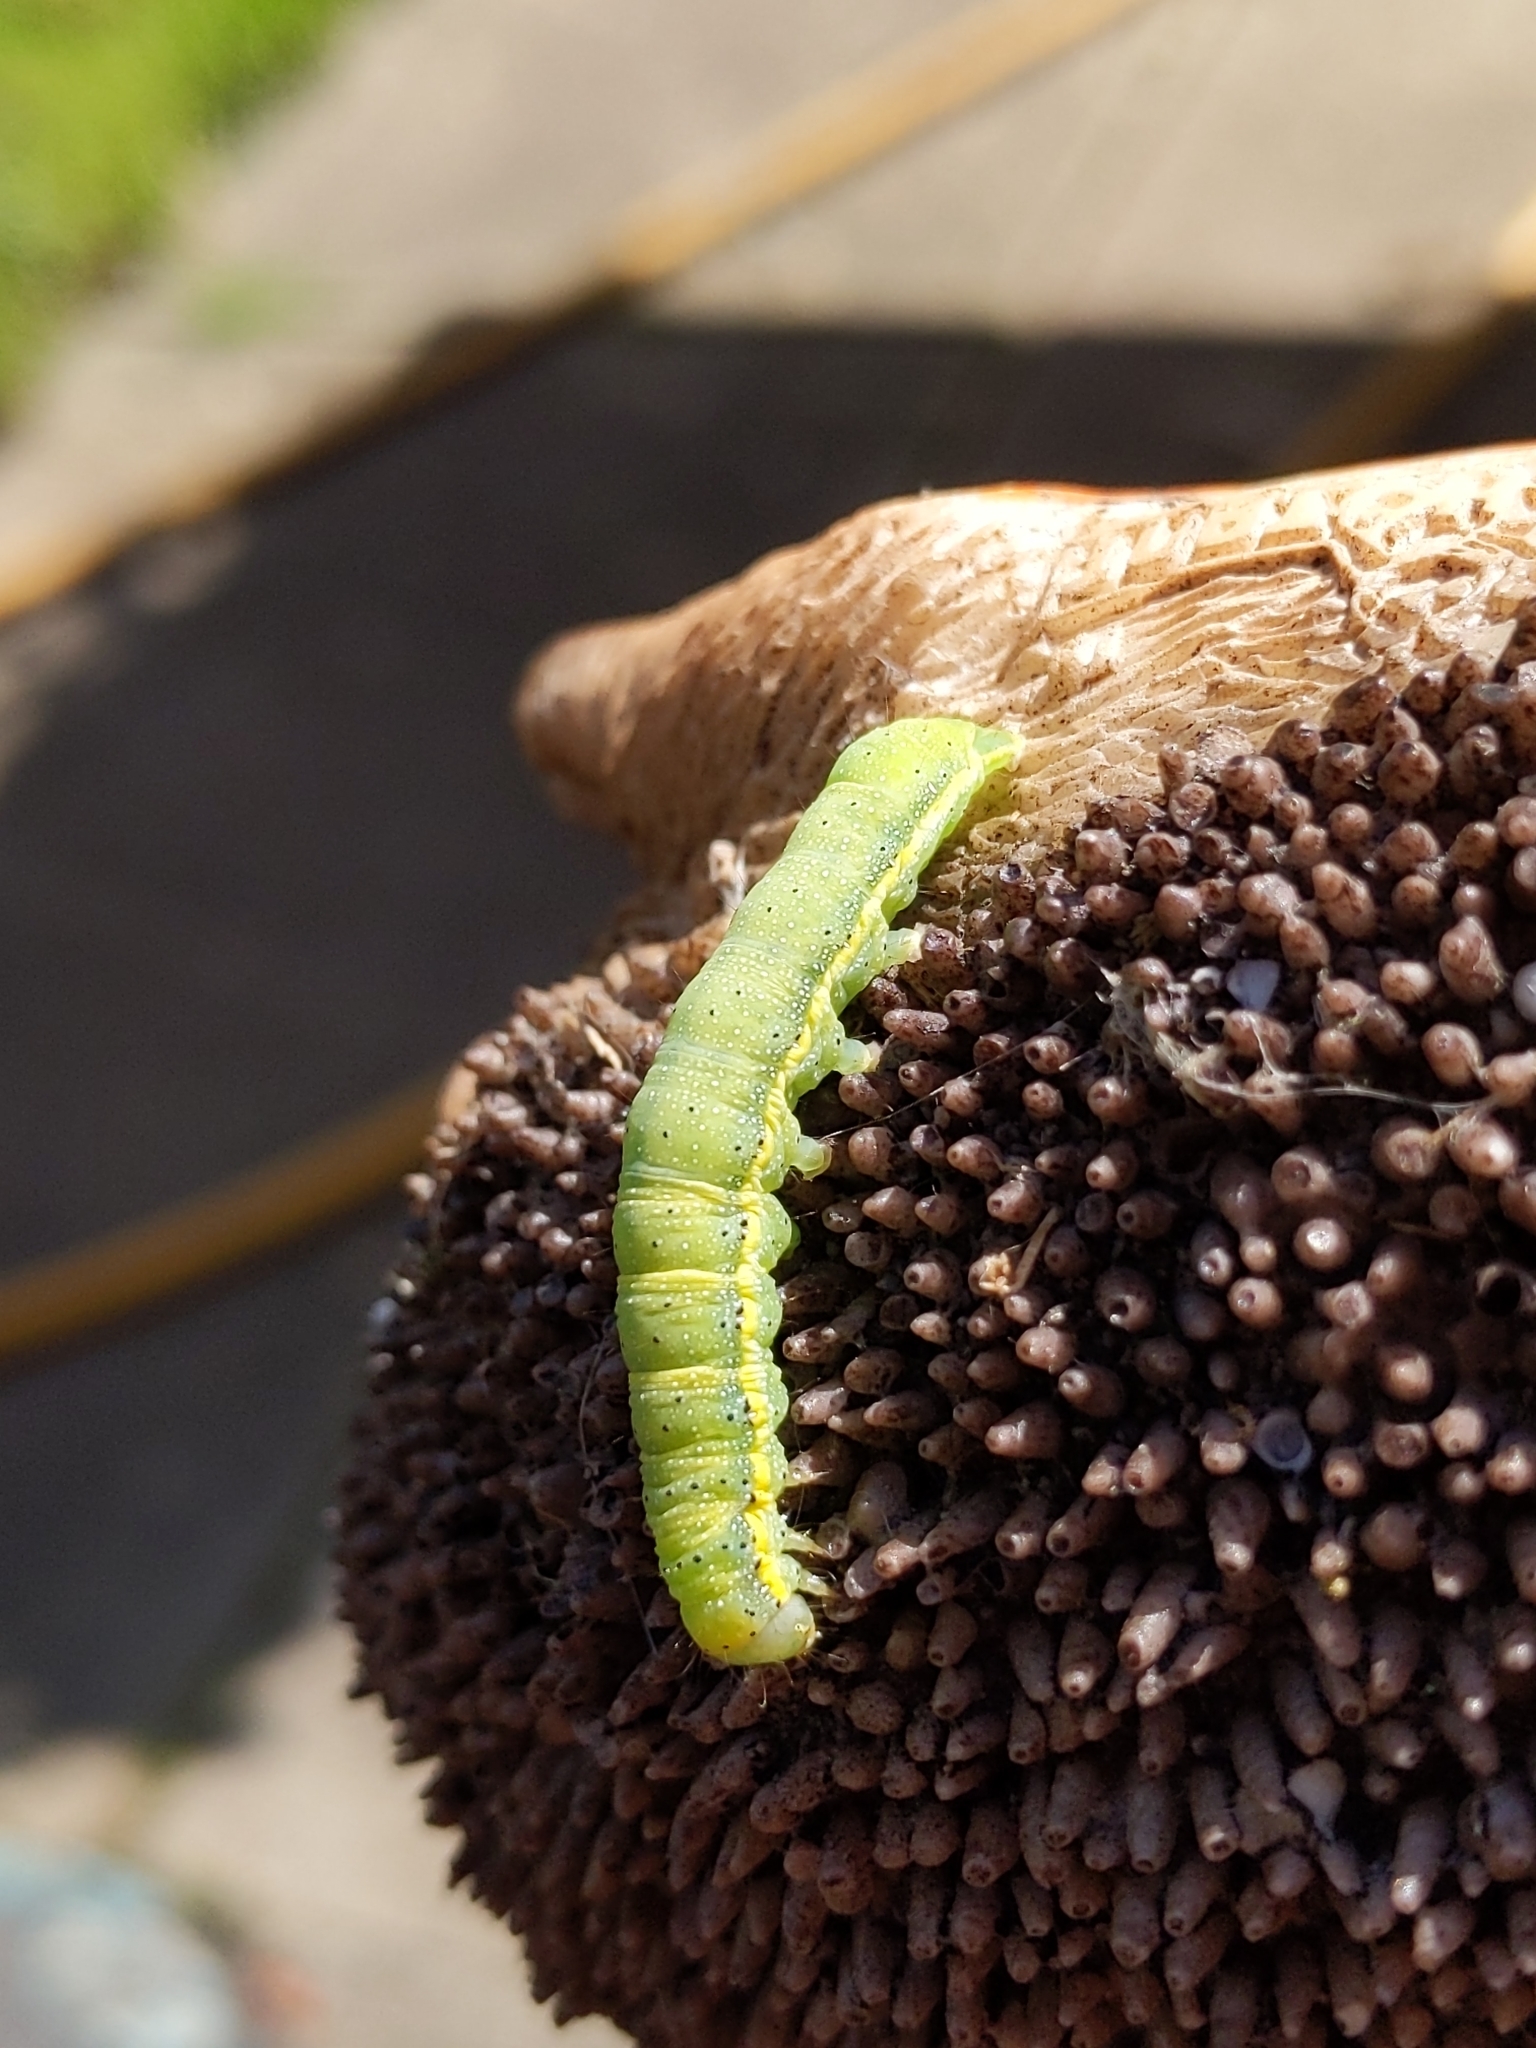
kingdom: Animalia
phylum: Arthropoda
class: Insecta
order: Lepidoptera
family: Noctuidae
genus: Lacanobia
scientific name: Lacanobia oleracea
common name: Bright-line brown-eye
